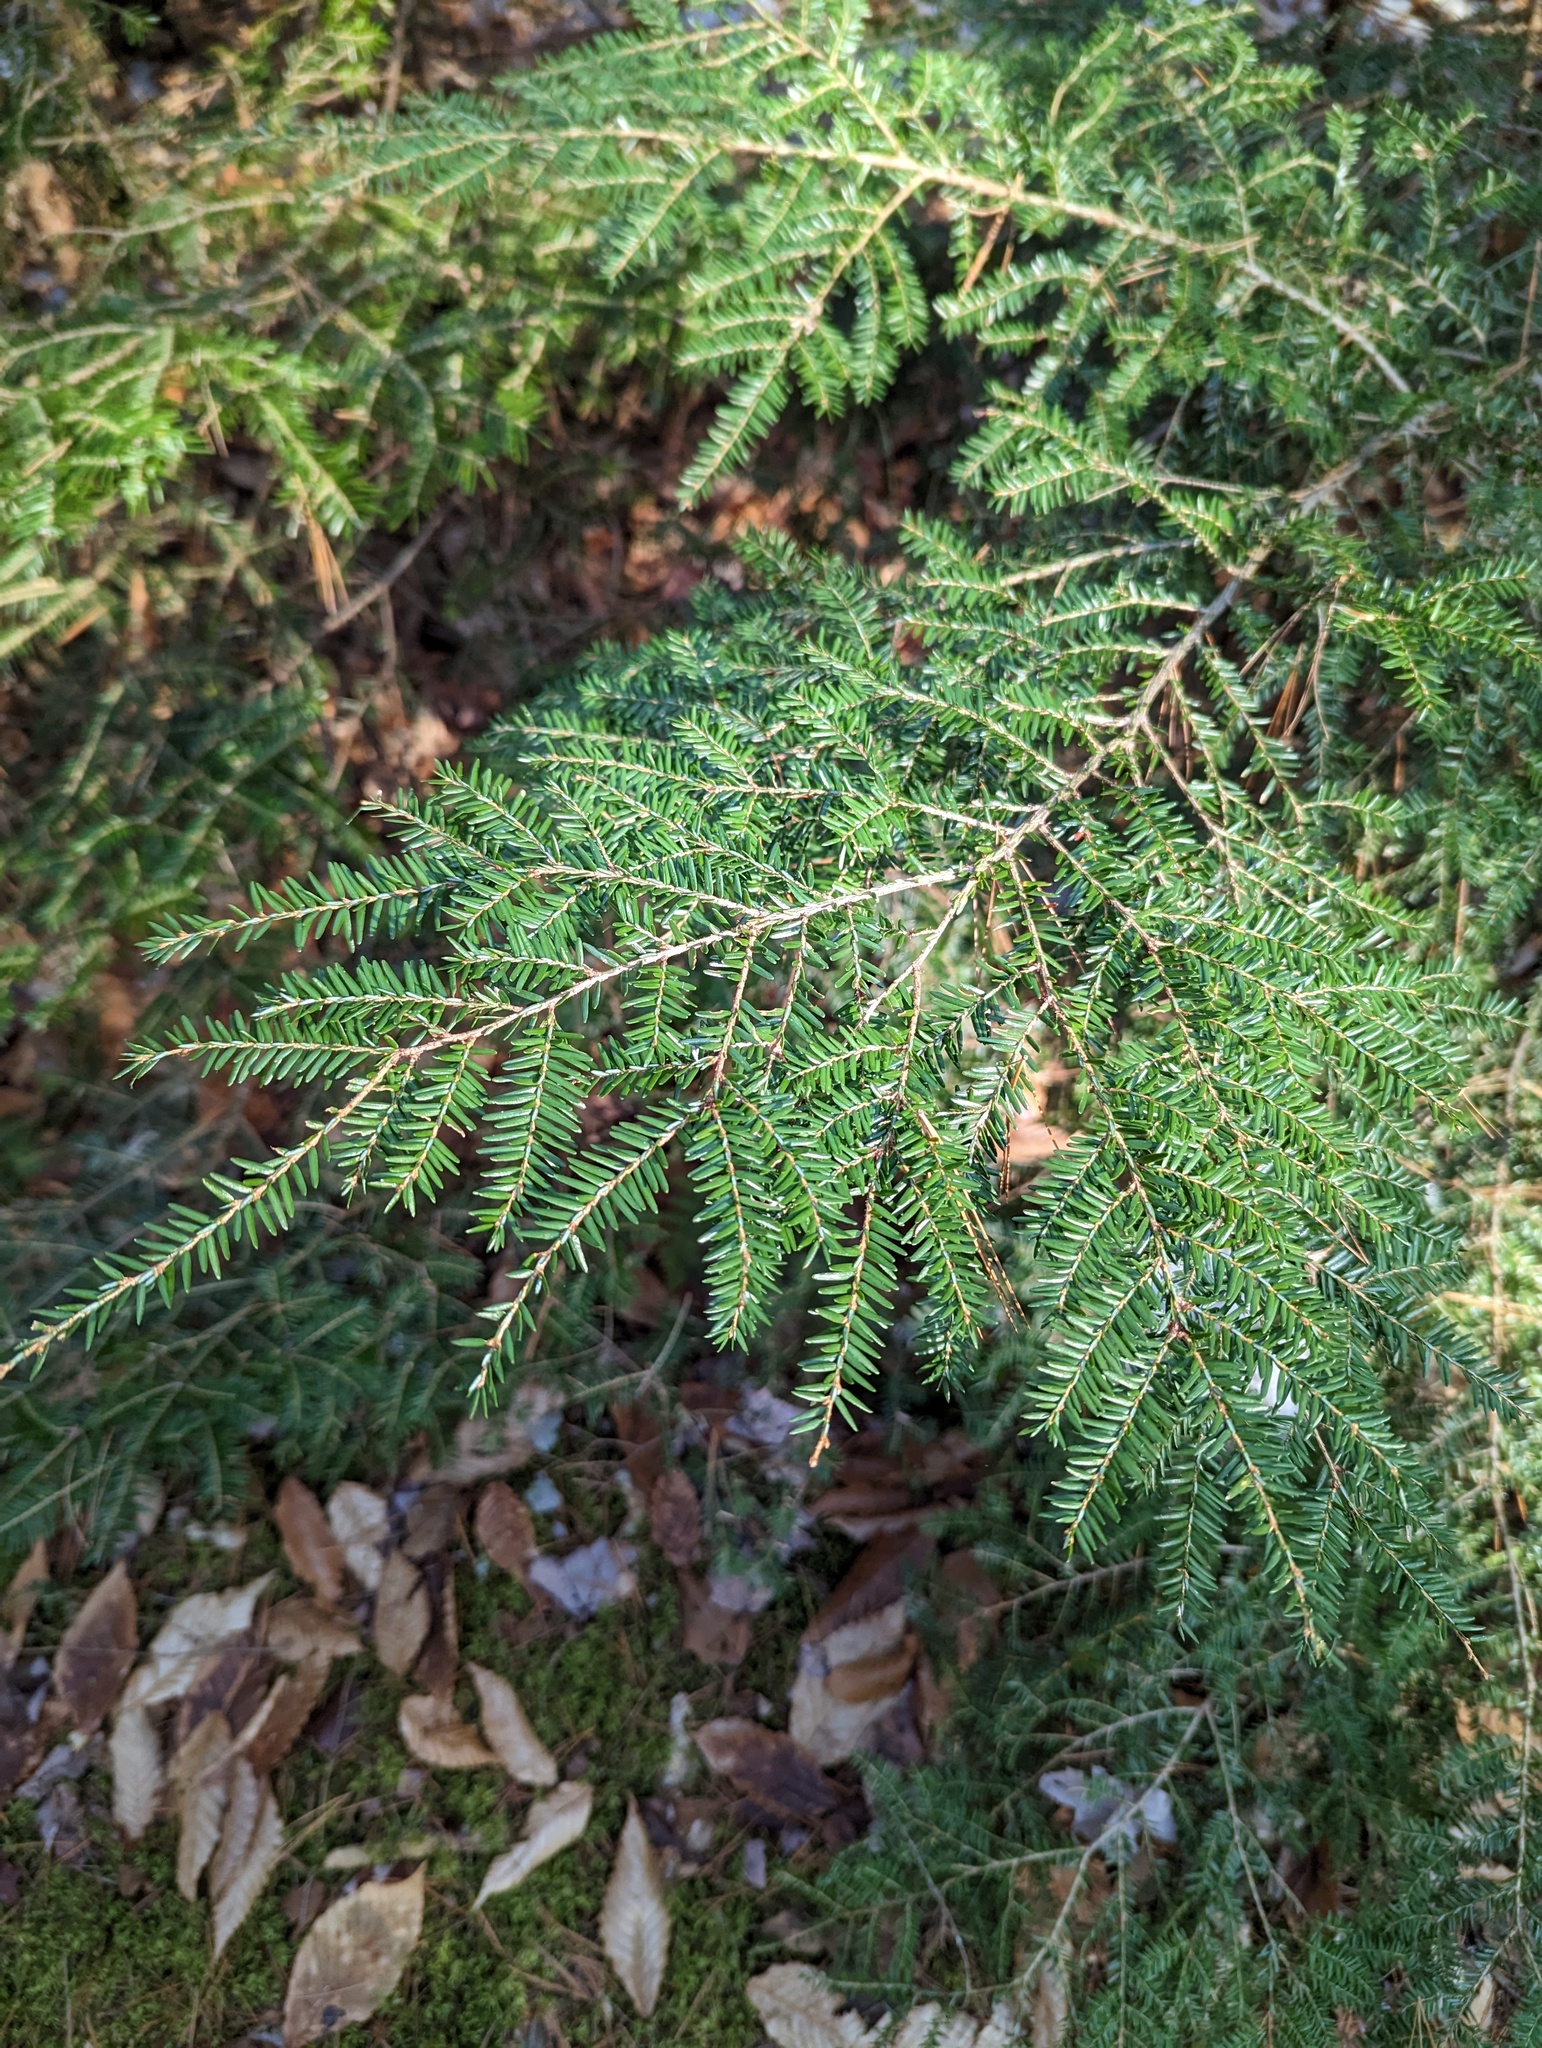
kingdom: Plantae
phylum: Tracheophyta
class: Pinopsida
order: Pinales
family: Pinaceae
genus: Tsuga
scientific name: Tsuga canadensis
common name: Eastern hemlock
